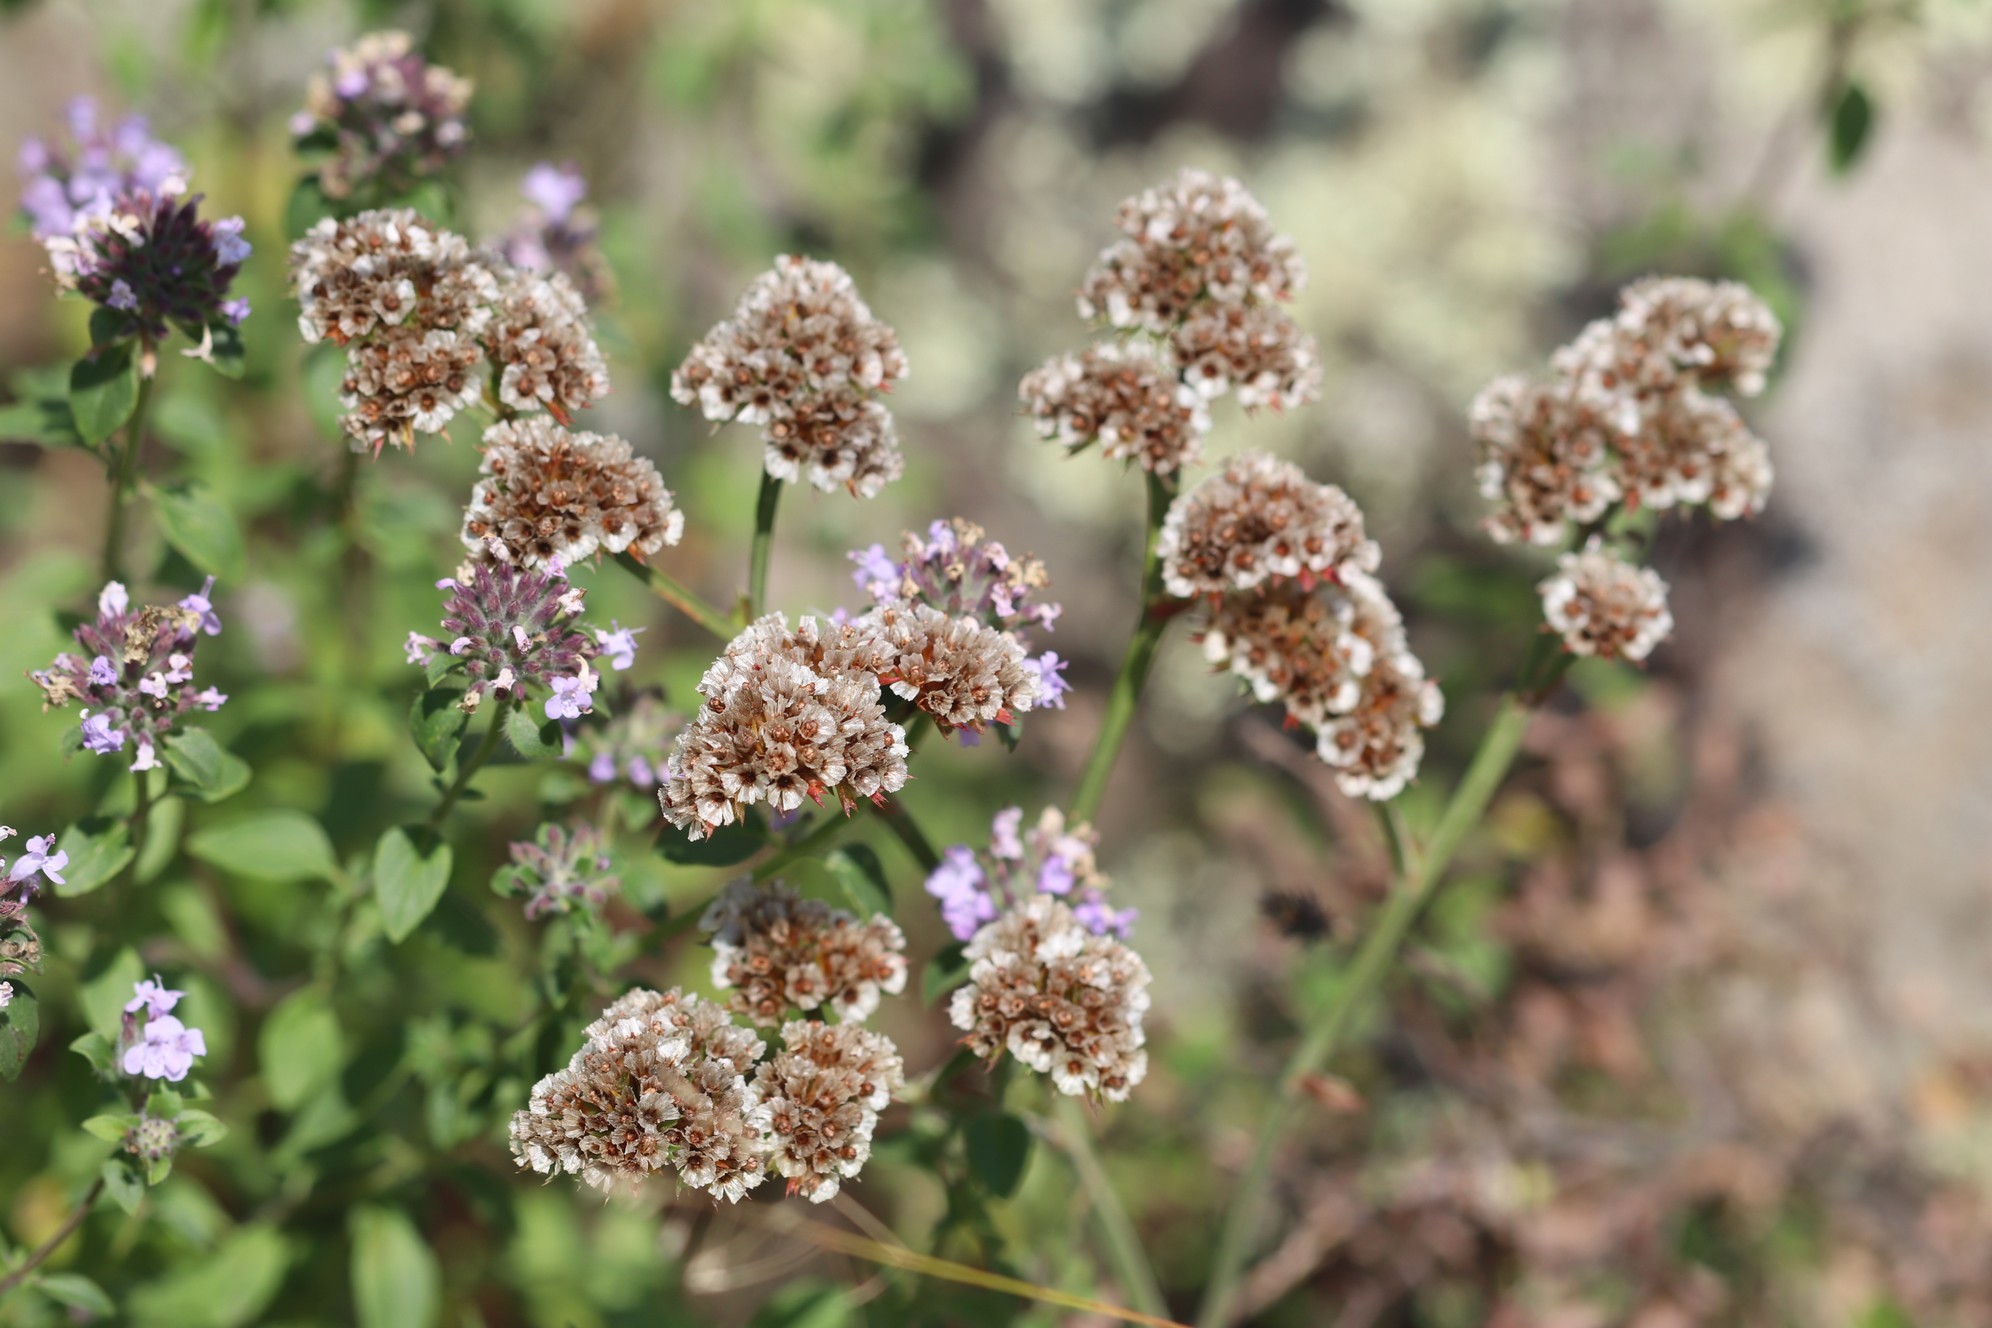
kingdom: Plantae
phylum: Tracheophyta
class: Magnoliopsida
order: Caryophyllales
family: Plumbaginaceae
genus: Goniolimon
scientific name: Goniolimon speciosum
